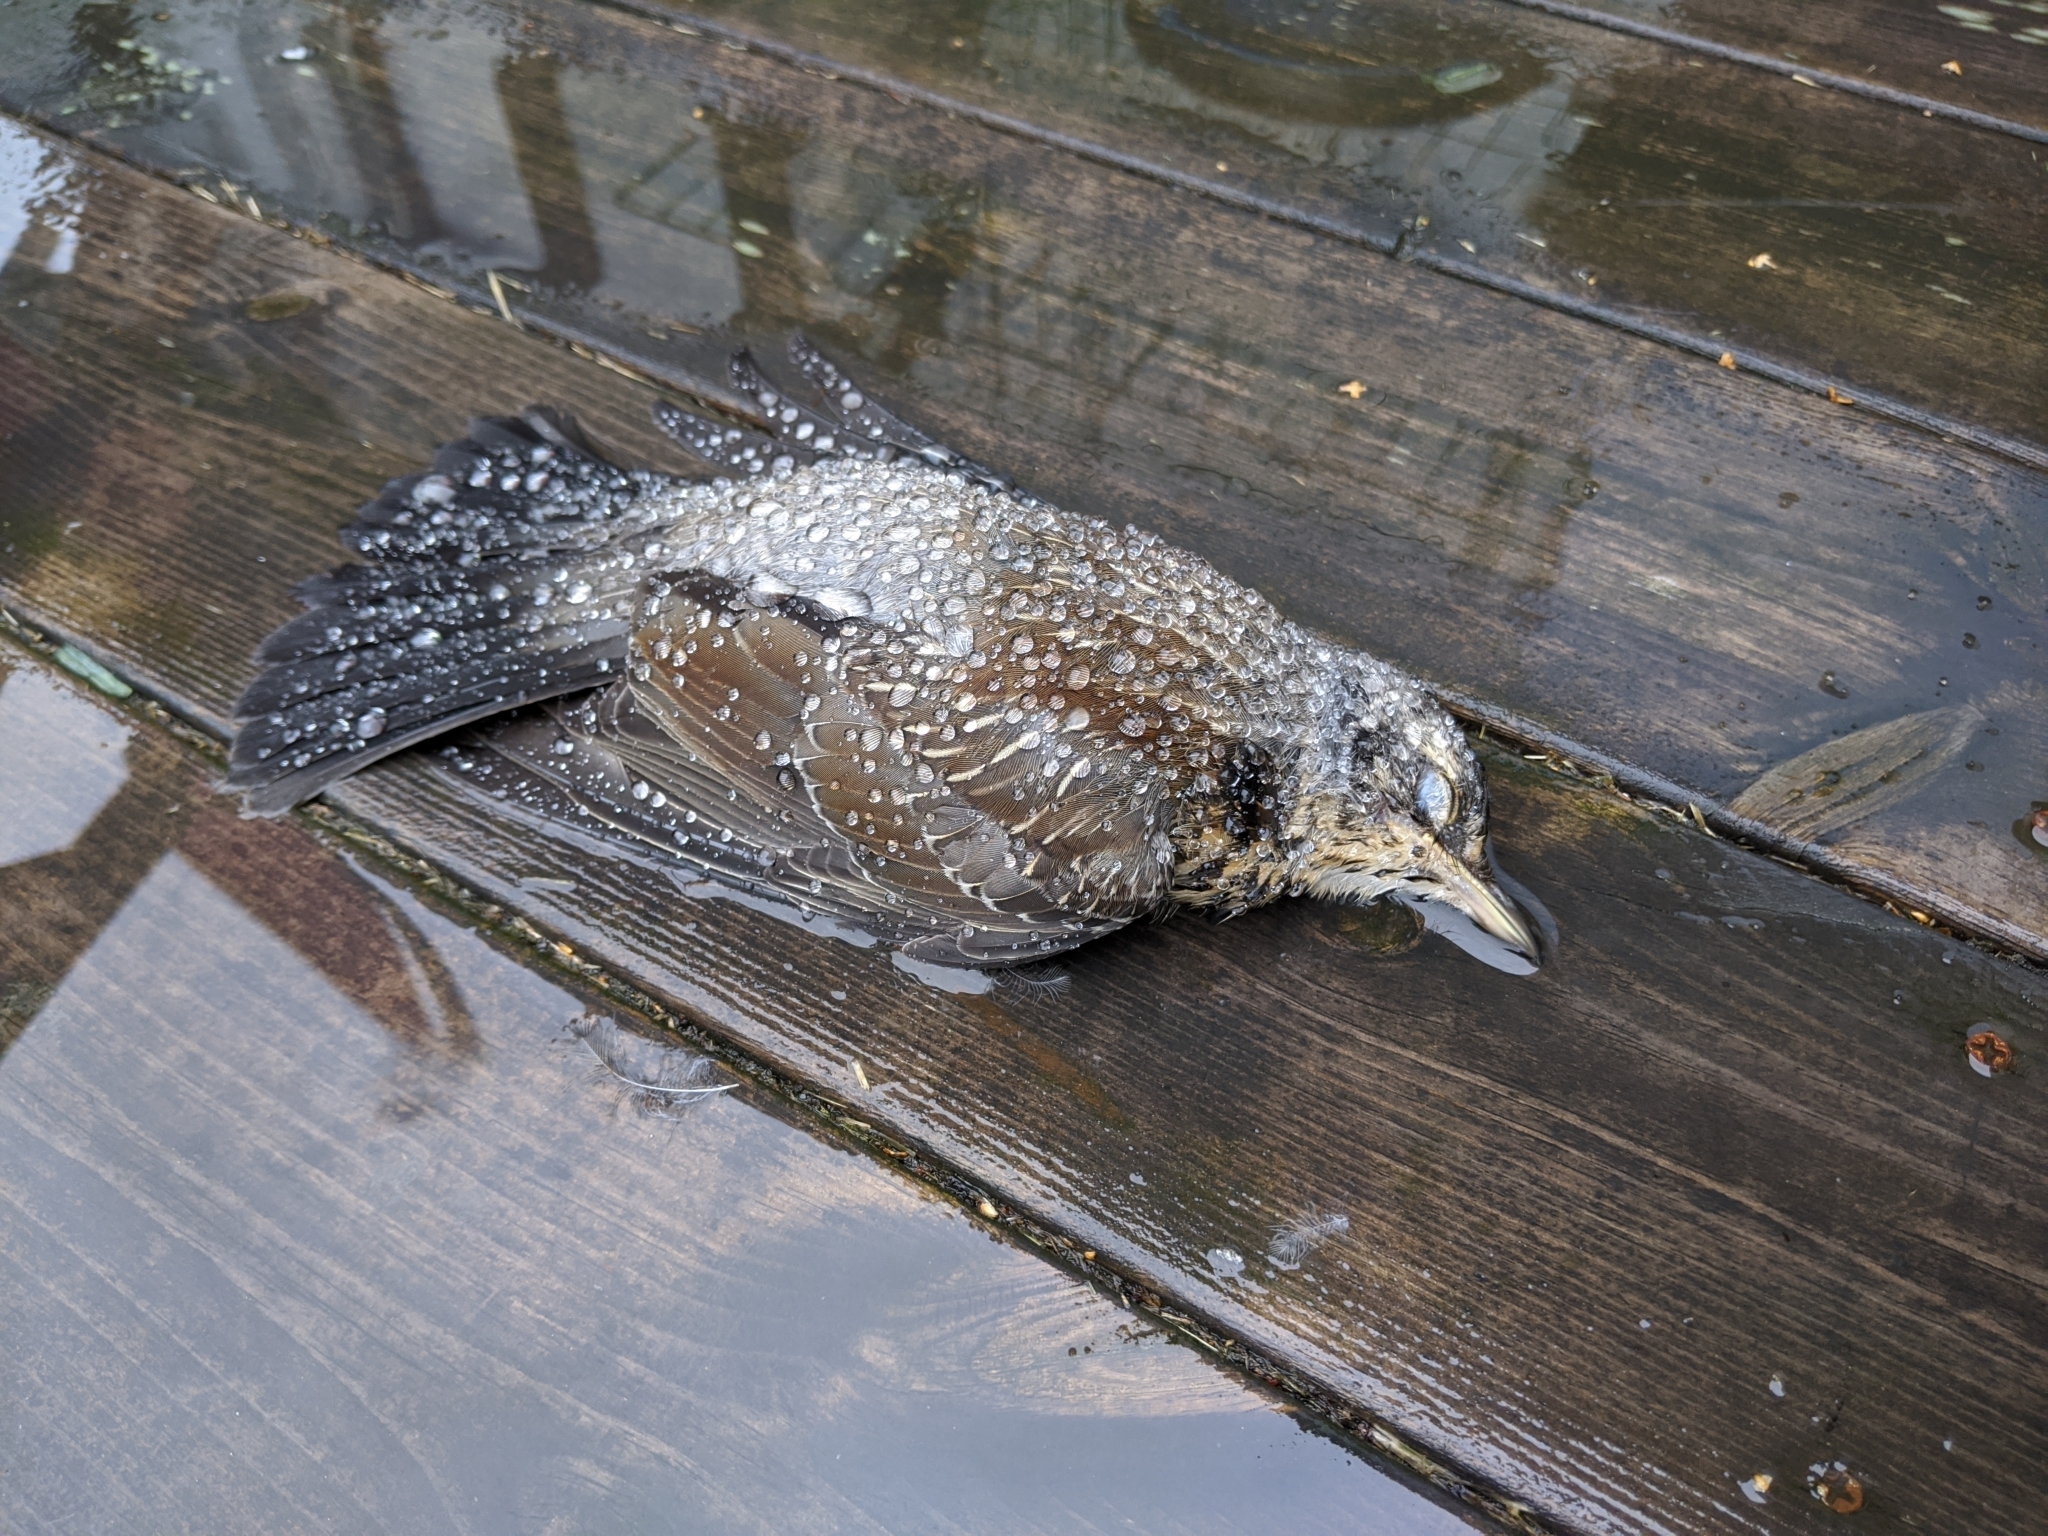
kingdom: Animalia
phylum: Chordata
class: Aves
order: Passeriformes
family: Turdidae
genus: Turdus
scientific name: Turdus pilaris
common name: Fieldfare
